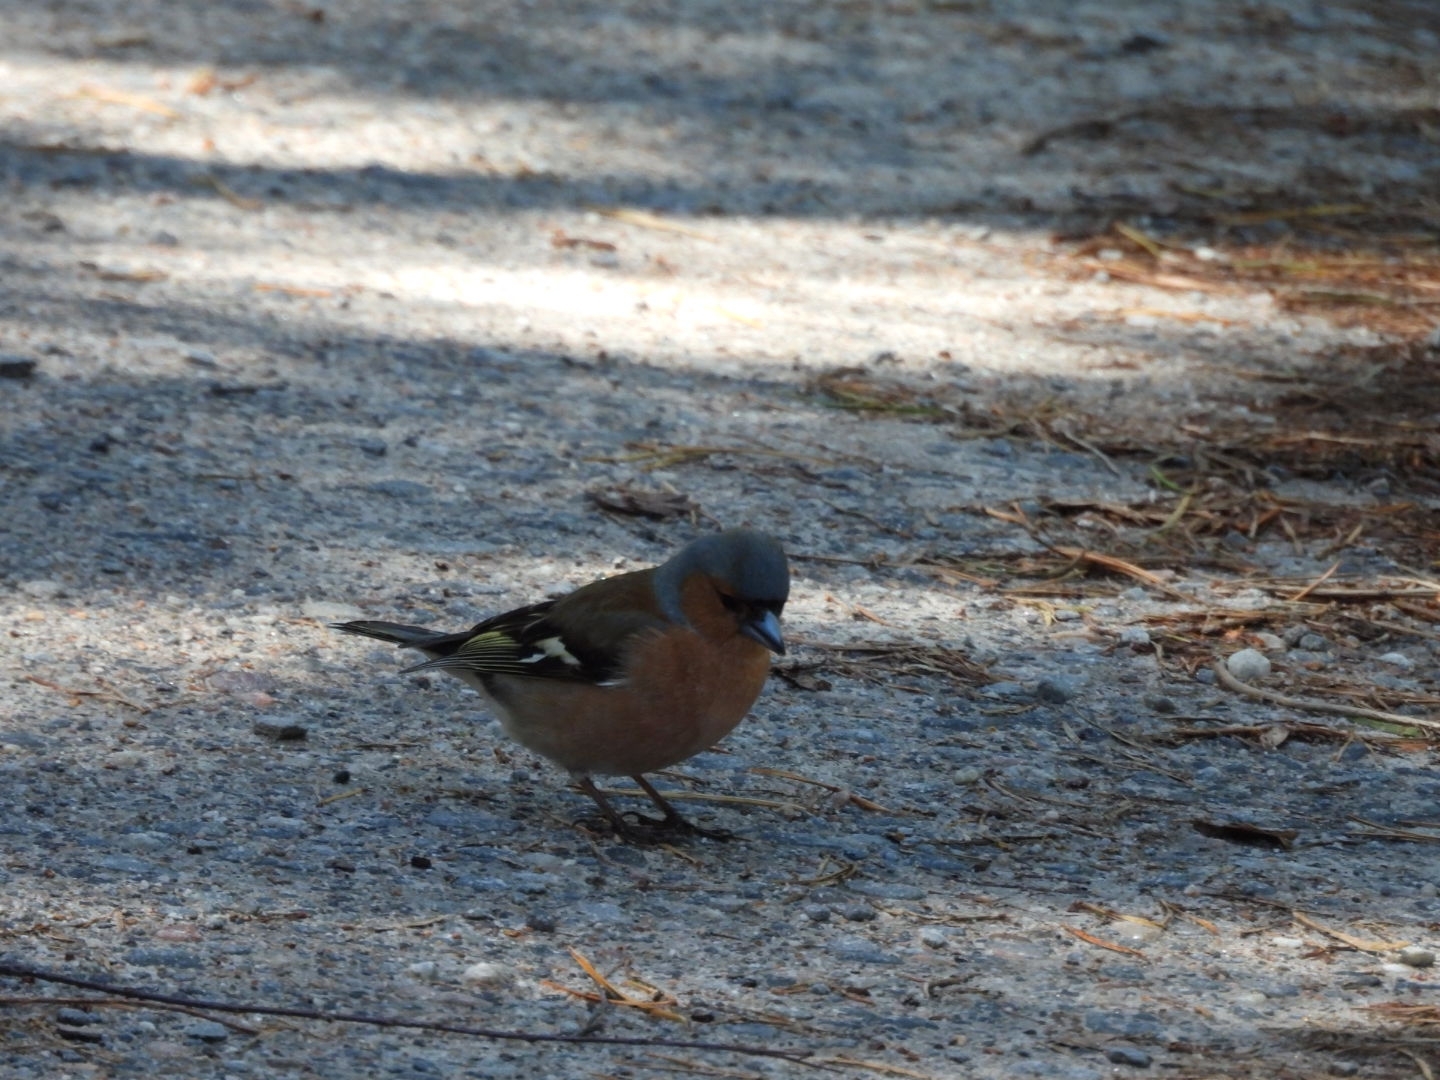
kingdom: Animalia
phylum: Chordata
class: Aves
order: Passeriformes
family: Fringillidae
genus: Fringilla
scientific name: Fringilla coelebs
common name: Common chaffinch
